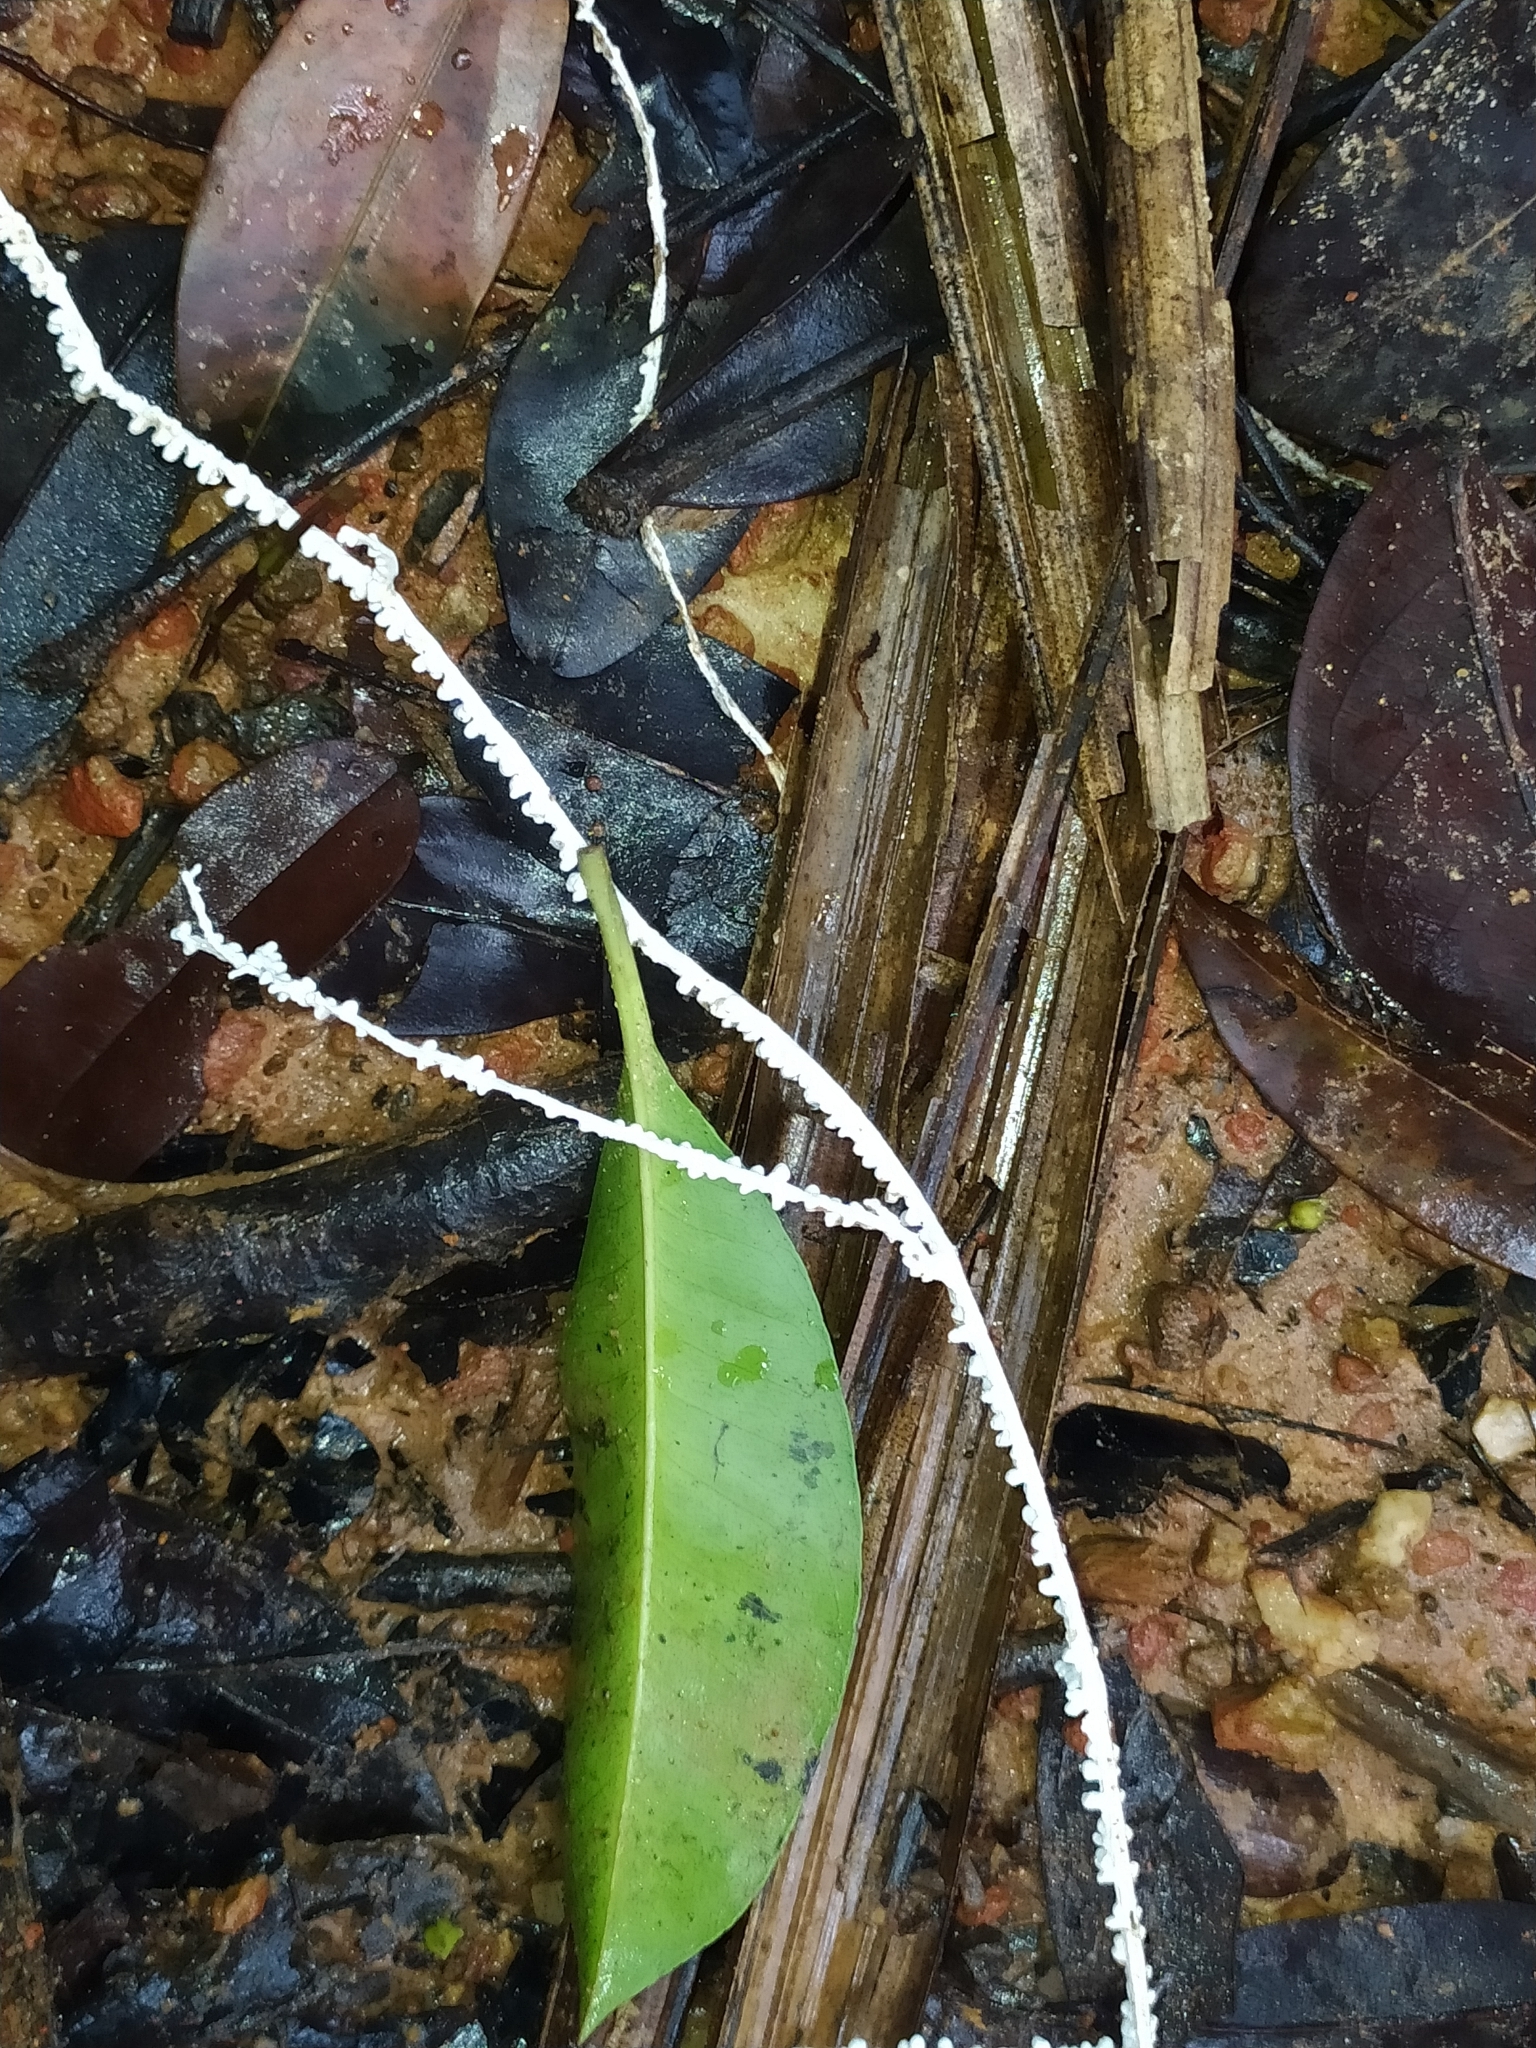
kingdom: Fungi
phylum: Basidiomycota
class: Agaricomycetes
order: Agaricales
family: Marasmiaceae
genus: Brunneocorticium
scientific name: Brunneocorticium corynecarpon
